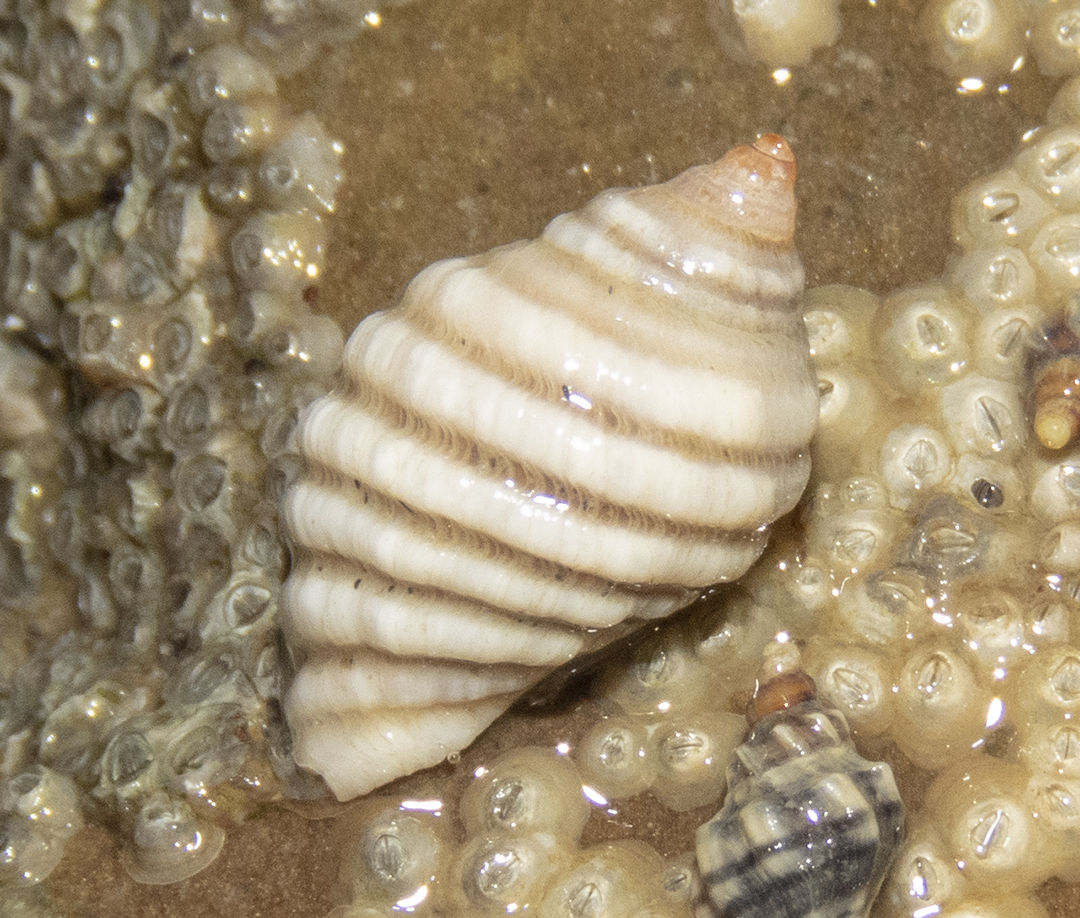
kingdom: Animalia
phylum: Mollusca
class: Gastropoda
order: Neogastropoda
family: Muricidae
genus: Paratrophon
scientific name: Paratrophon patens
